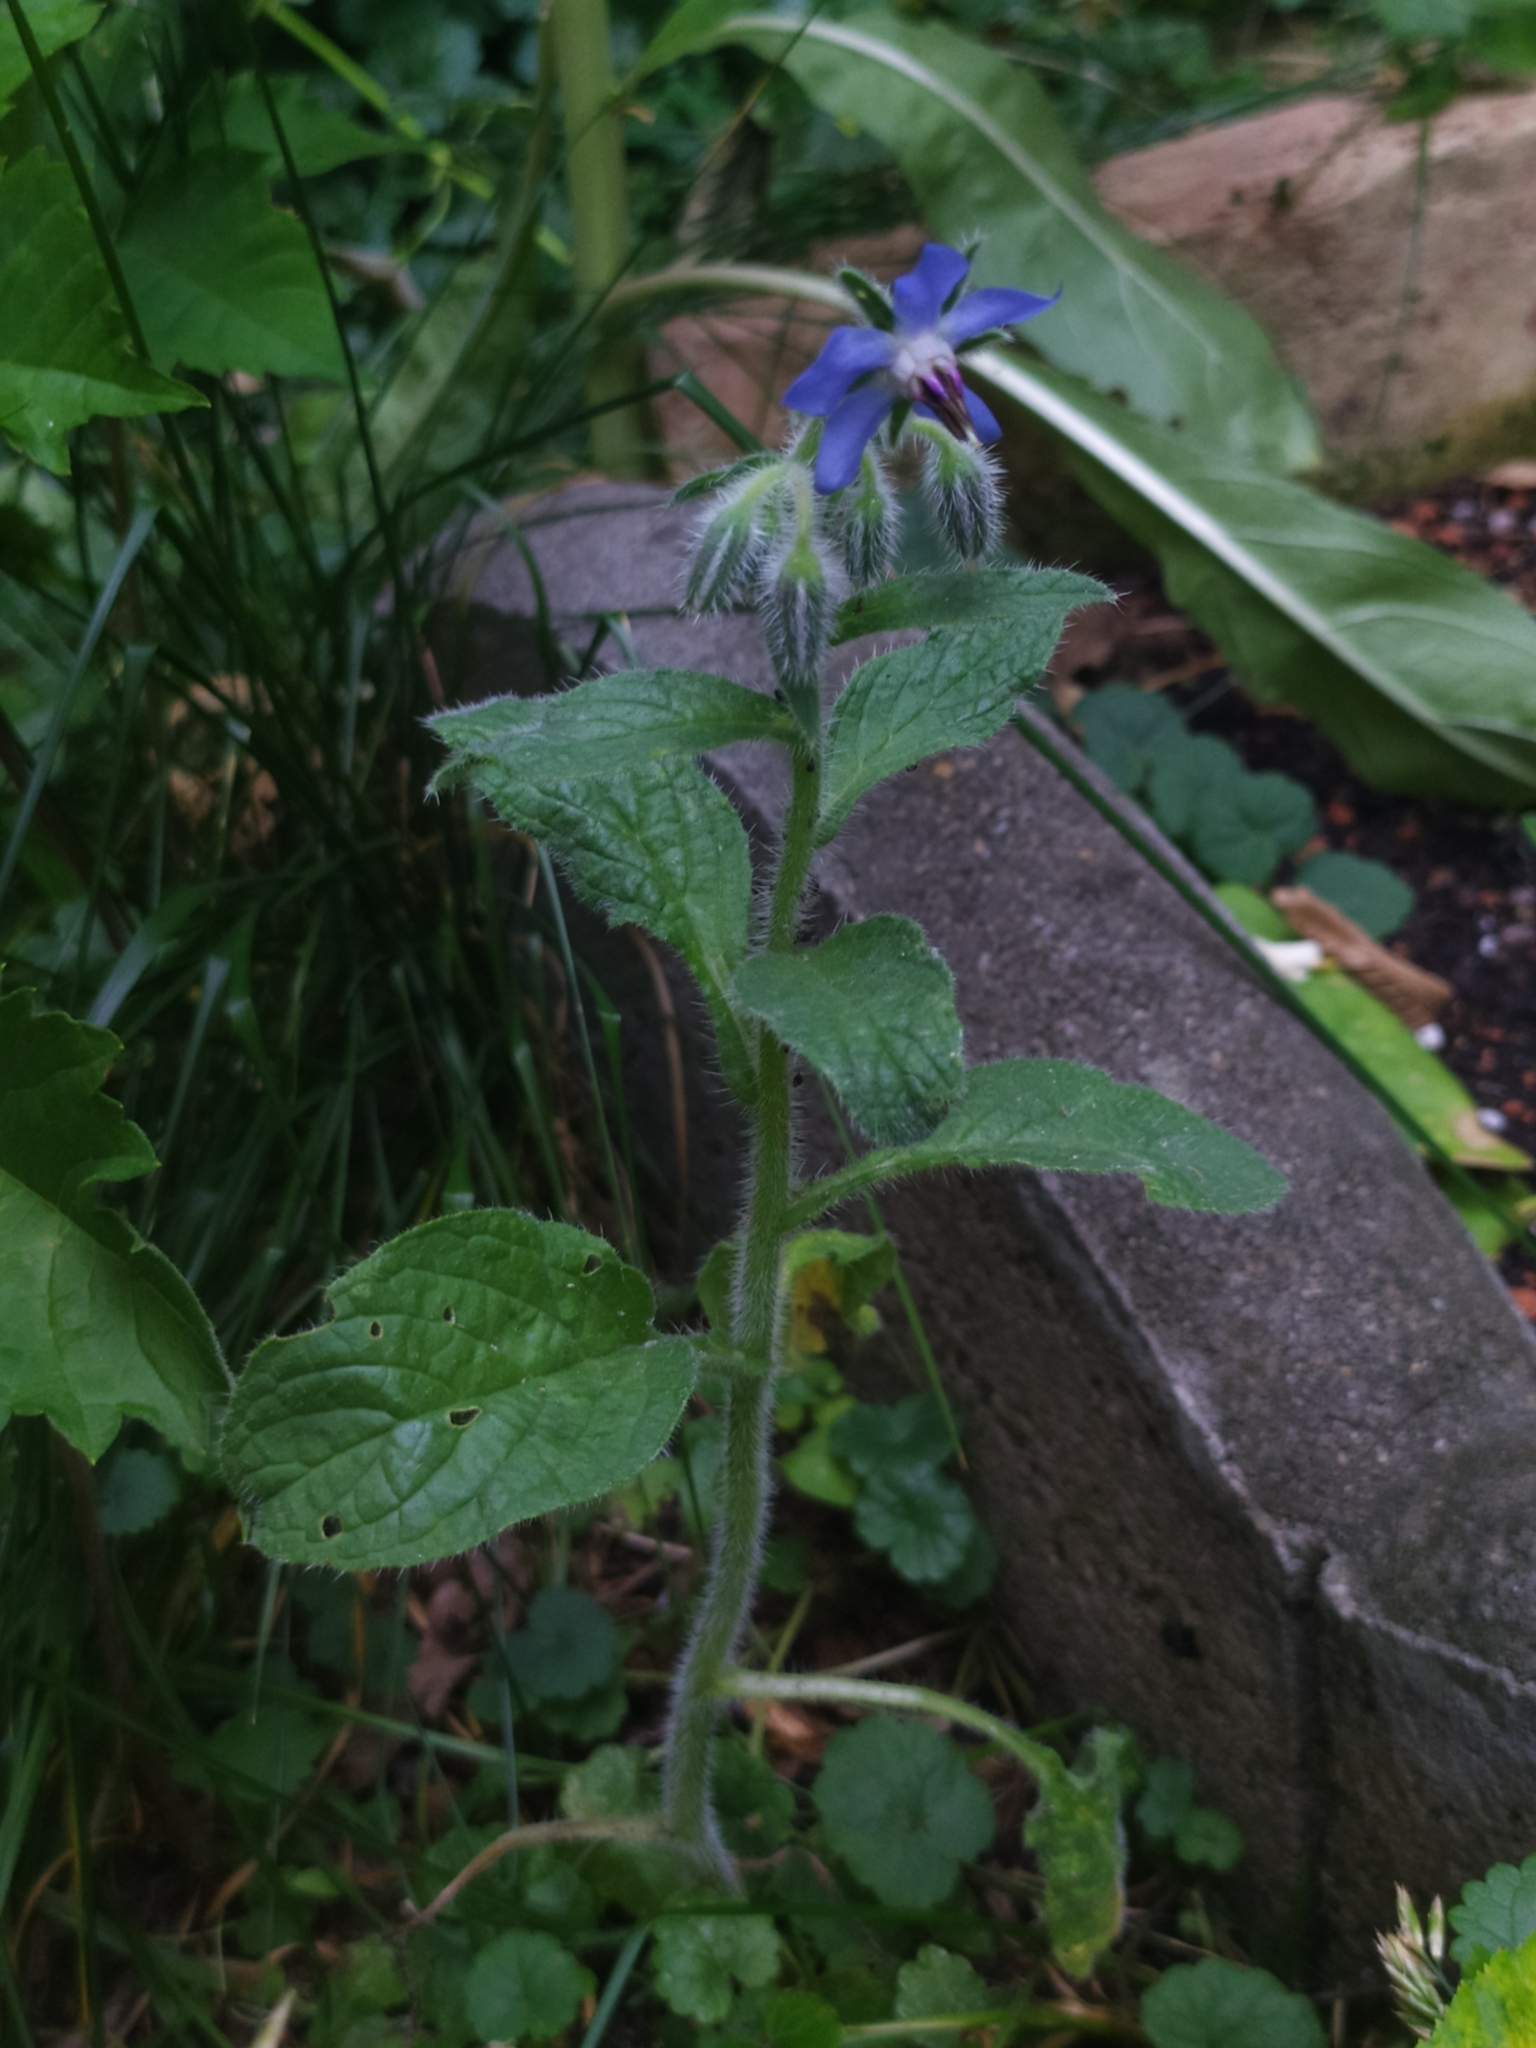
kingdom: Plantae
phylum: Tracheophyta
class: Magnoliopsida
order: Boraginales
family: Boraginaceae
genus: Borago
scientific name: Borago officinalis
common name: Borage
